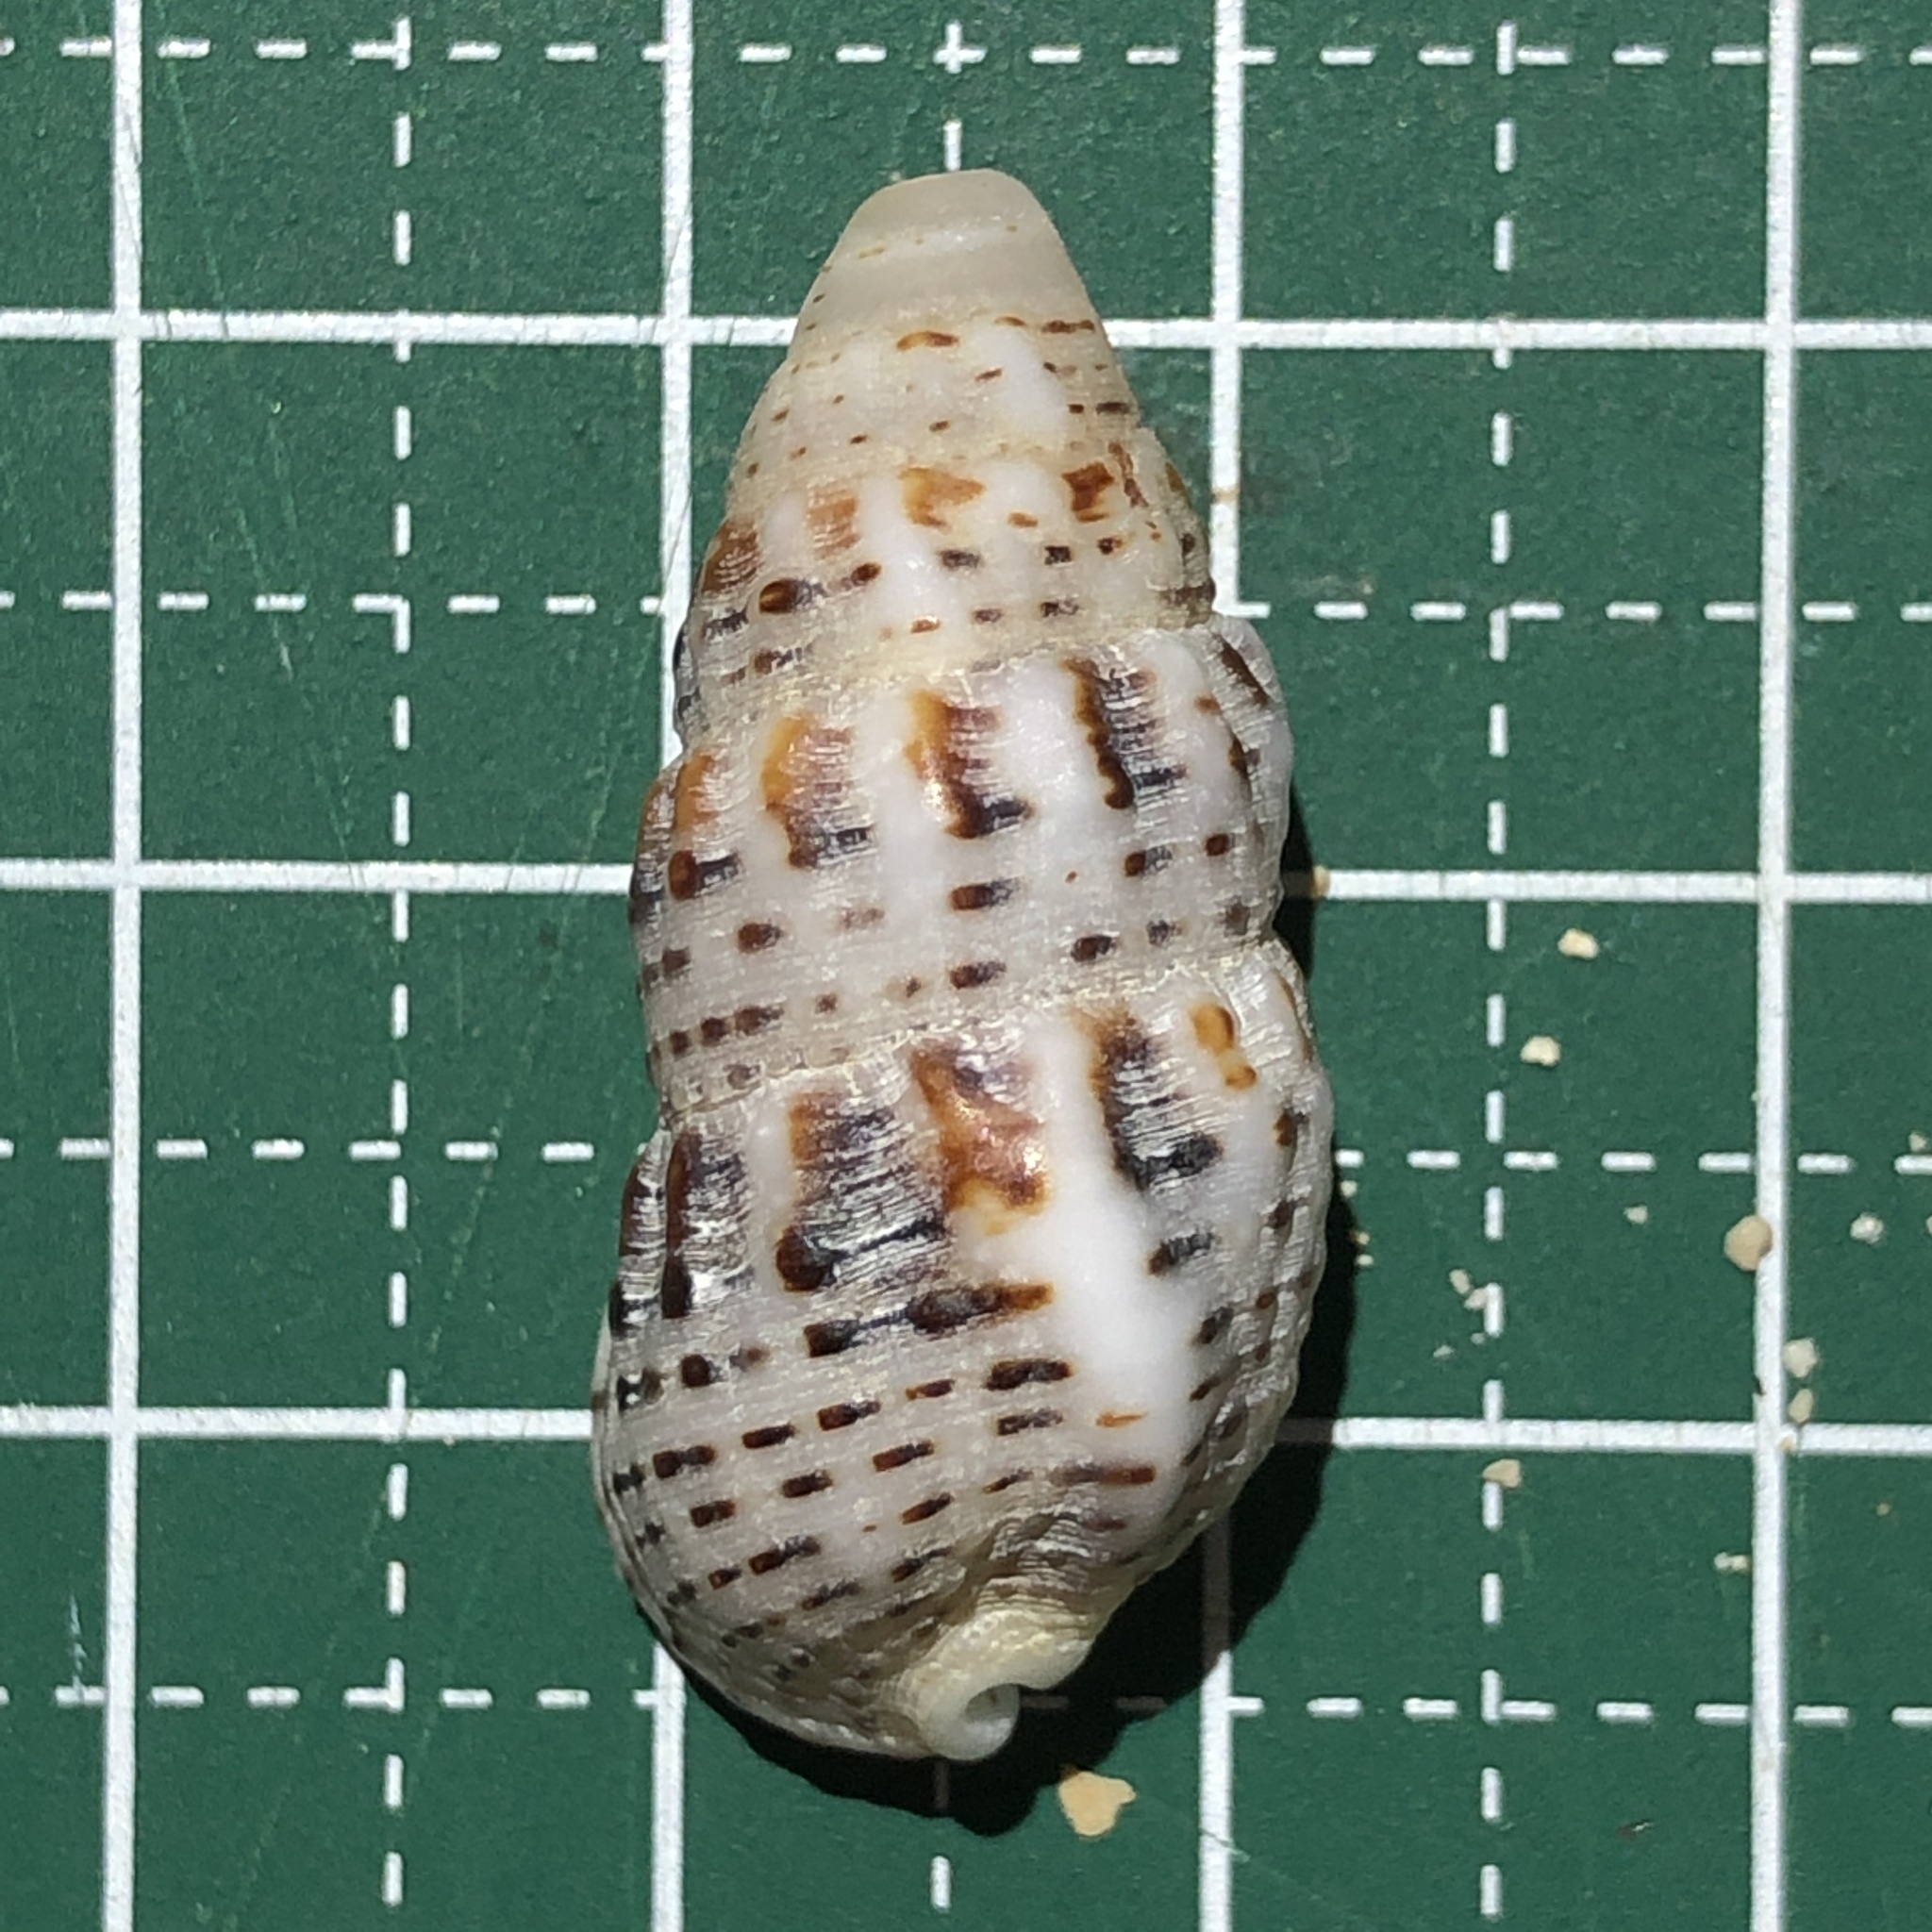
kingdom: Animalia
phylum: Mollusca
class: Gastropoda
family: Cerithiidae
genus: Clypeomorus
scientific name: Clypeomorus petrosa
